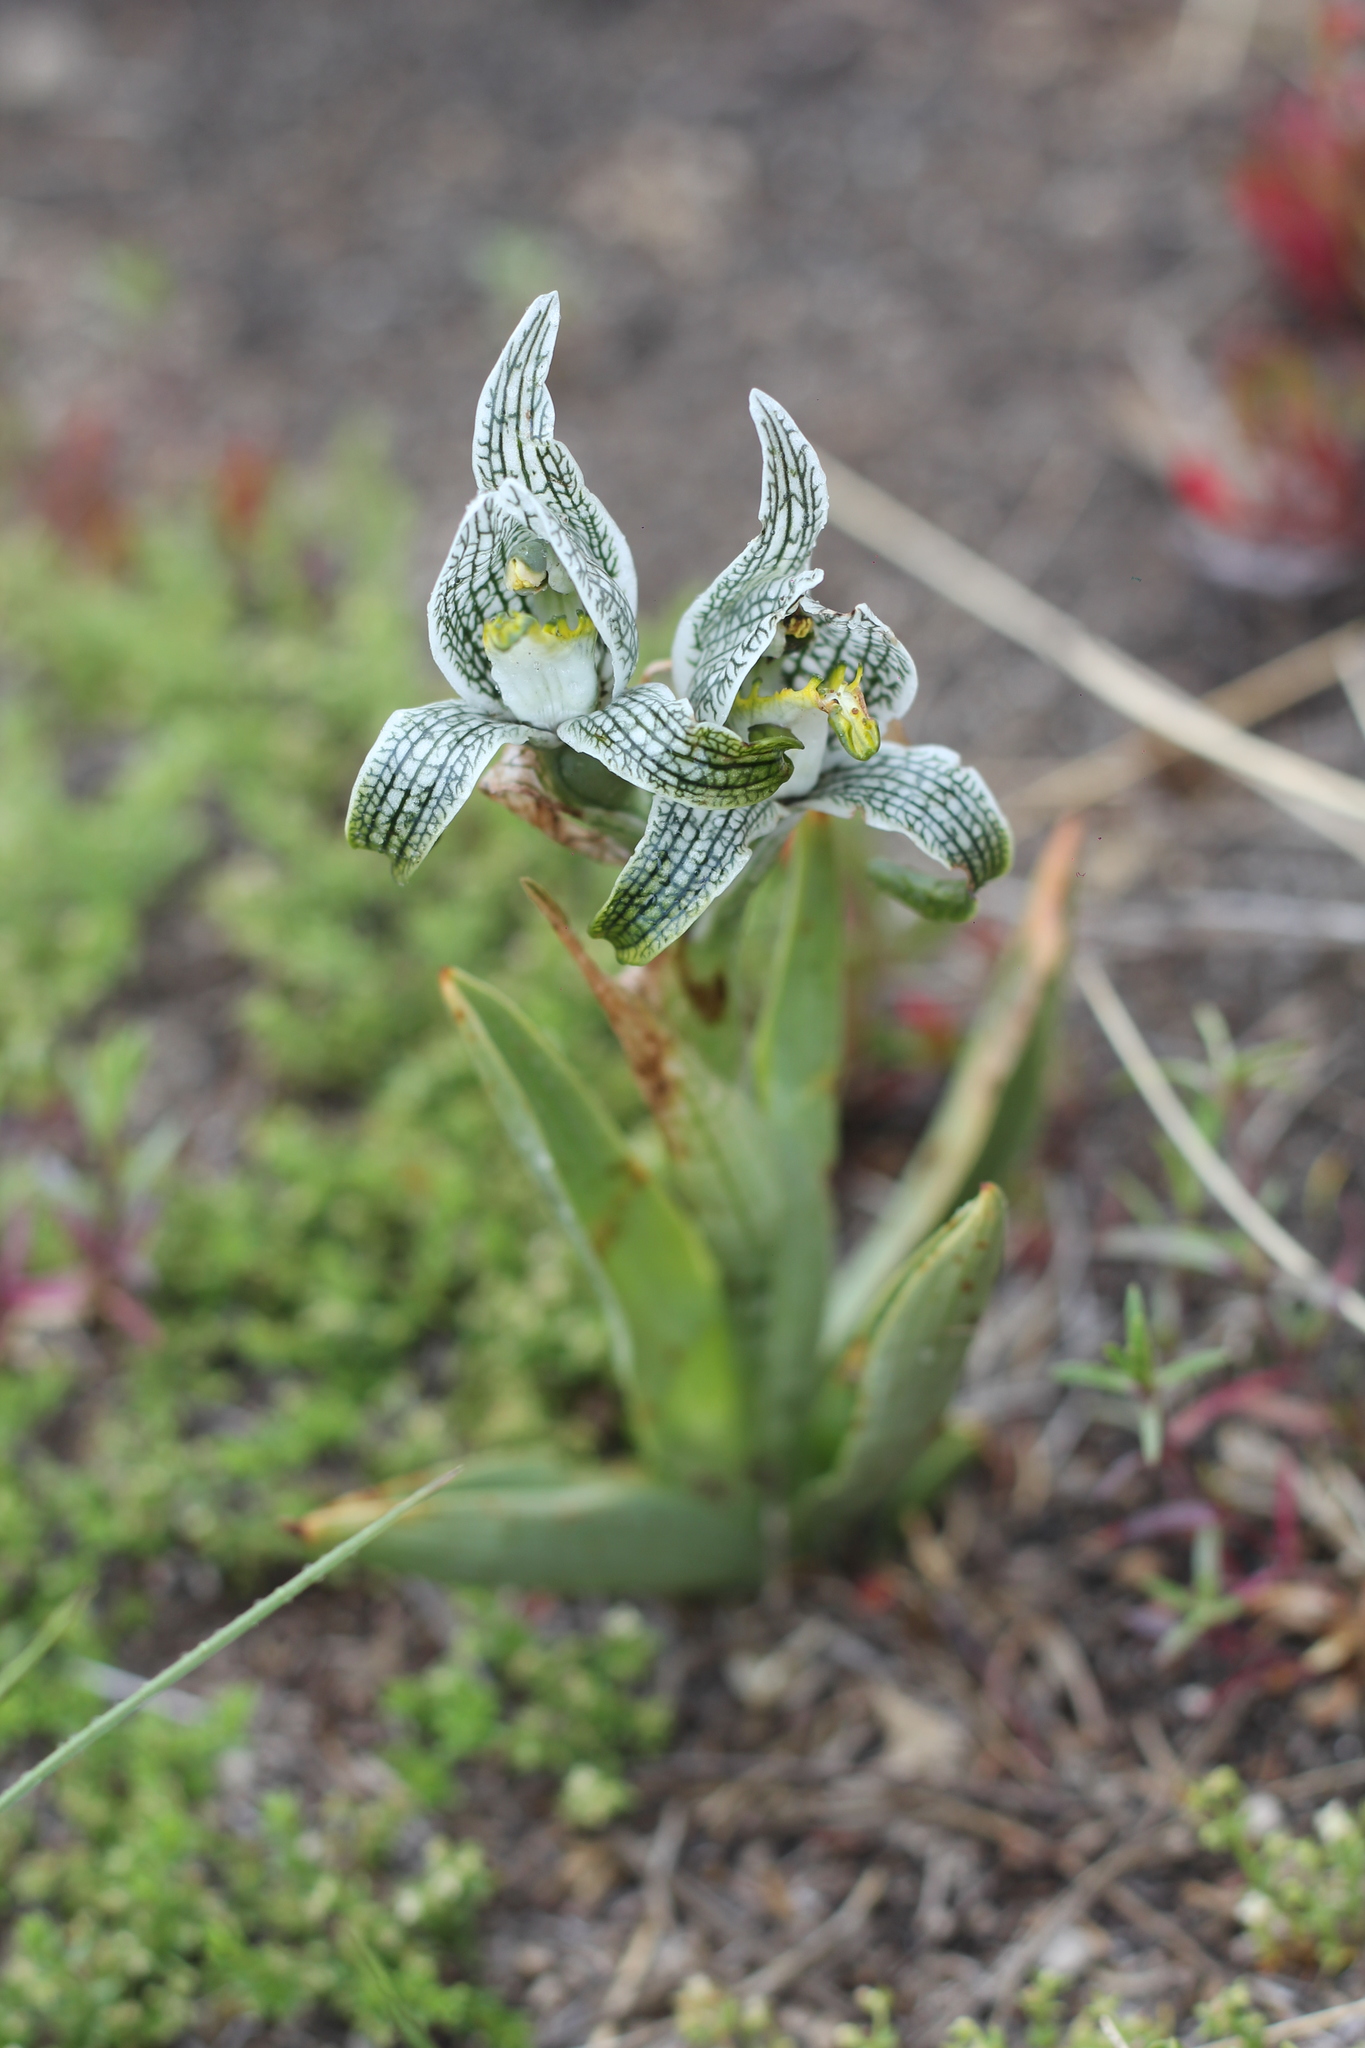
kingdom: Plantae
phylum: Tracheophyta
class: Liliopsida
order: Asparagales
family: Orchidaceae
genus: Chloraea
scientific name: Chloraea magellanica
